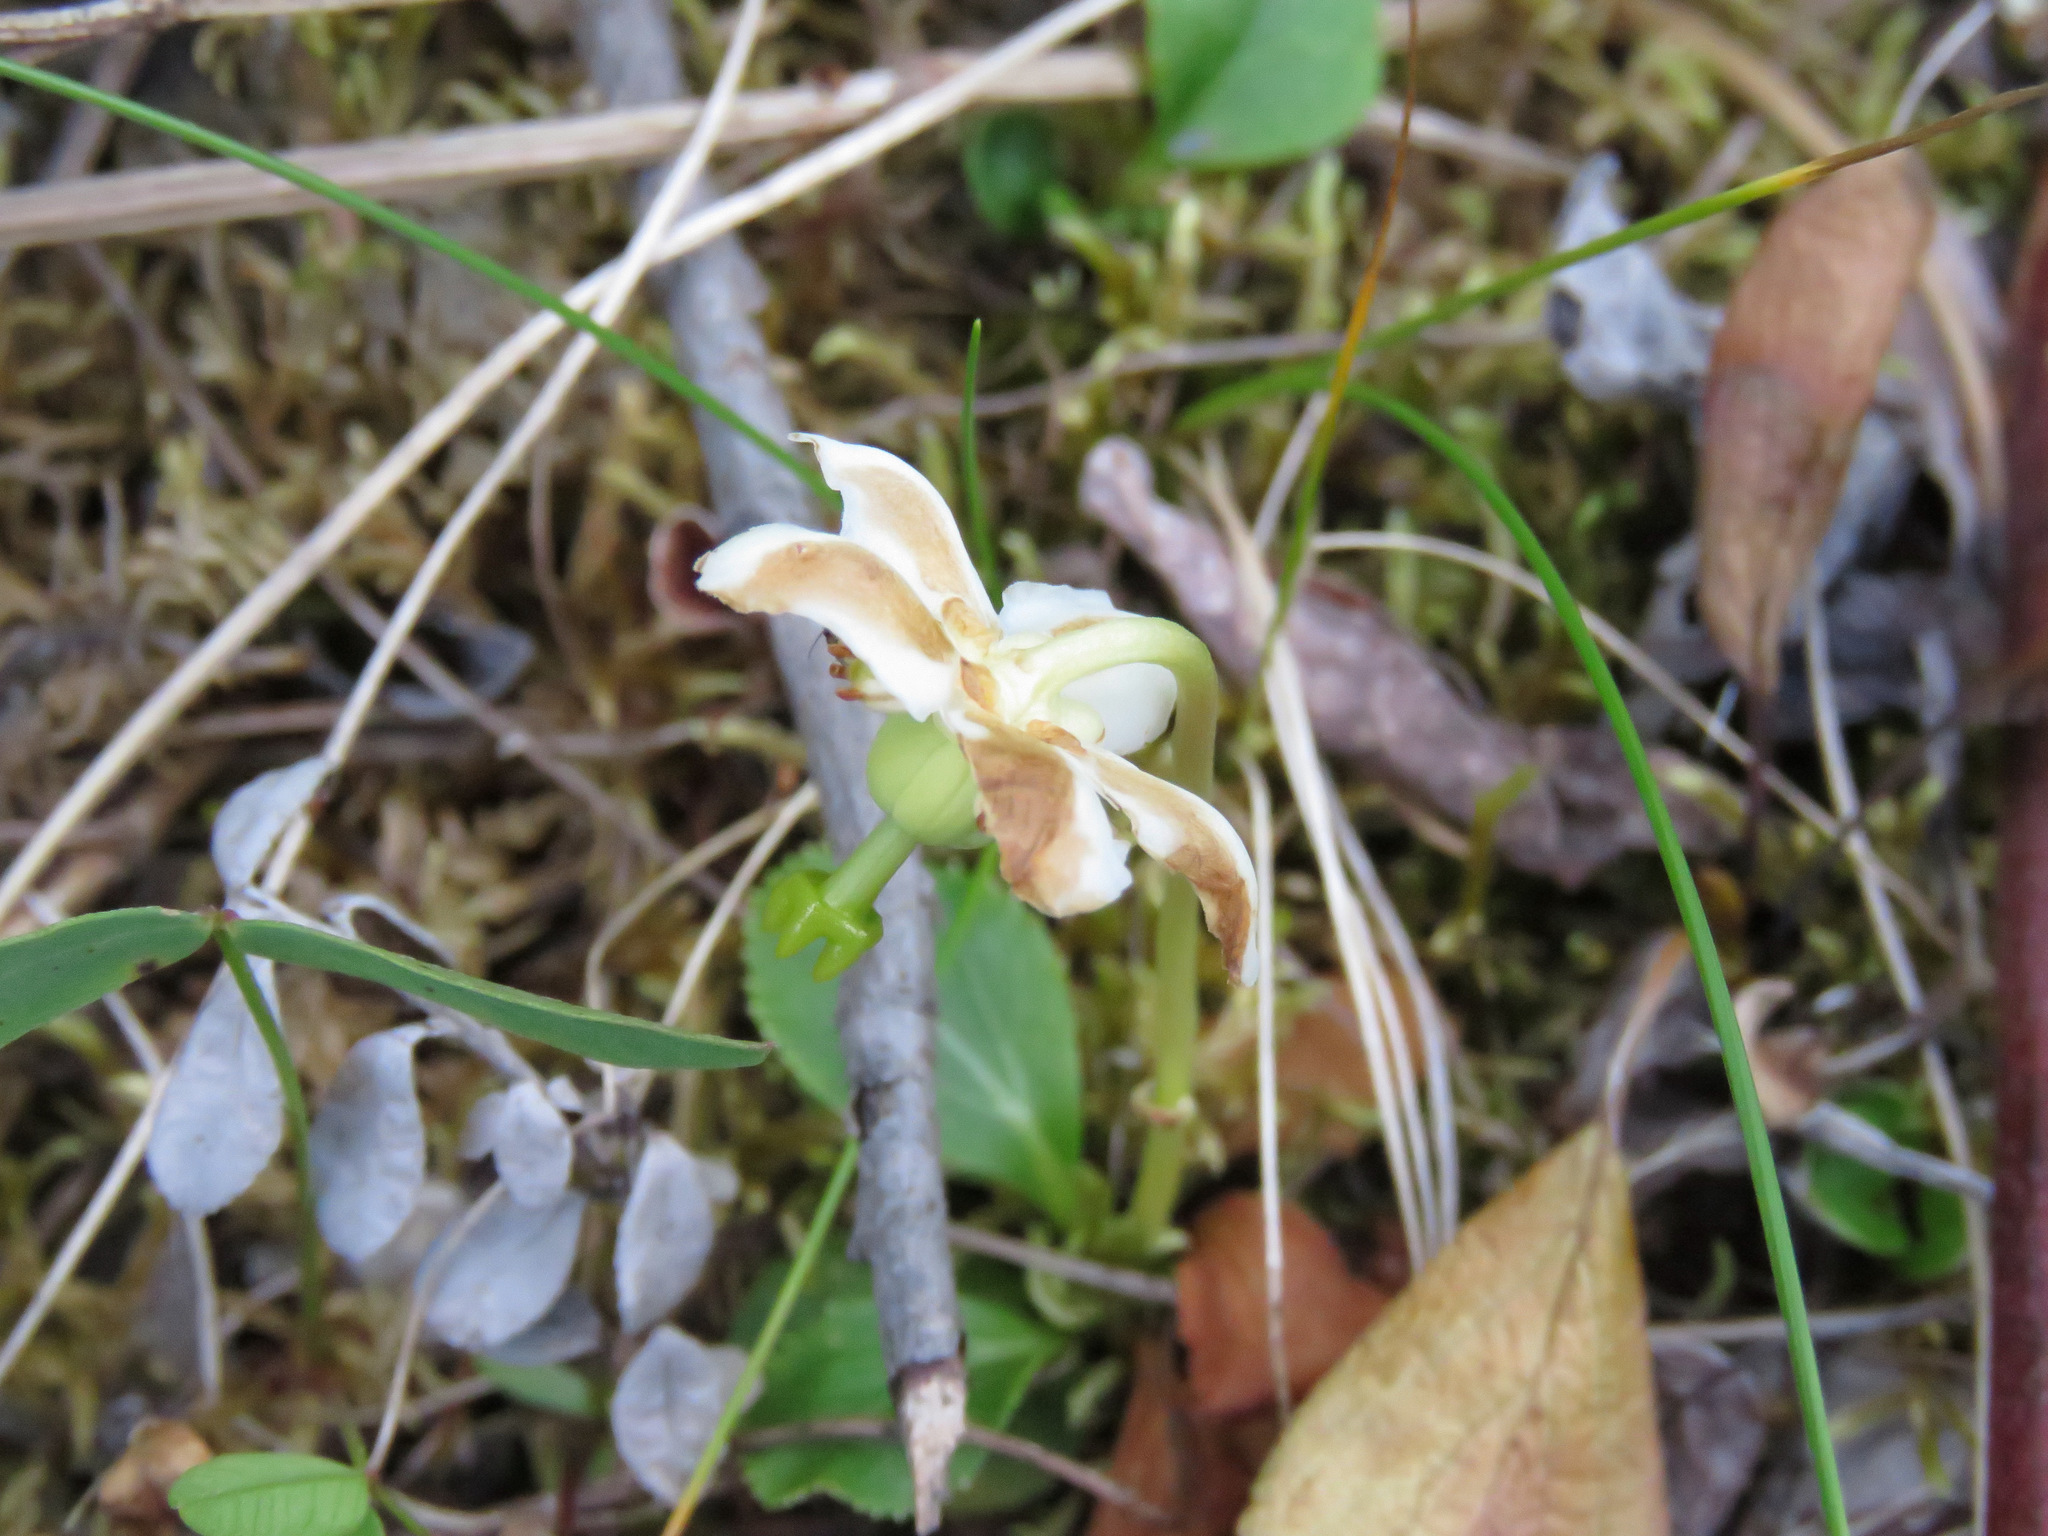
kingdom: Plantae
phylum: Tracheophyta
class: Magnoliopsida
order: Ericales
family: Ericaceae
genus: Moneses
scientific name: Moneses uniflora
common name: One-flowered wintergreen
